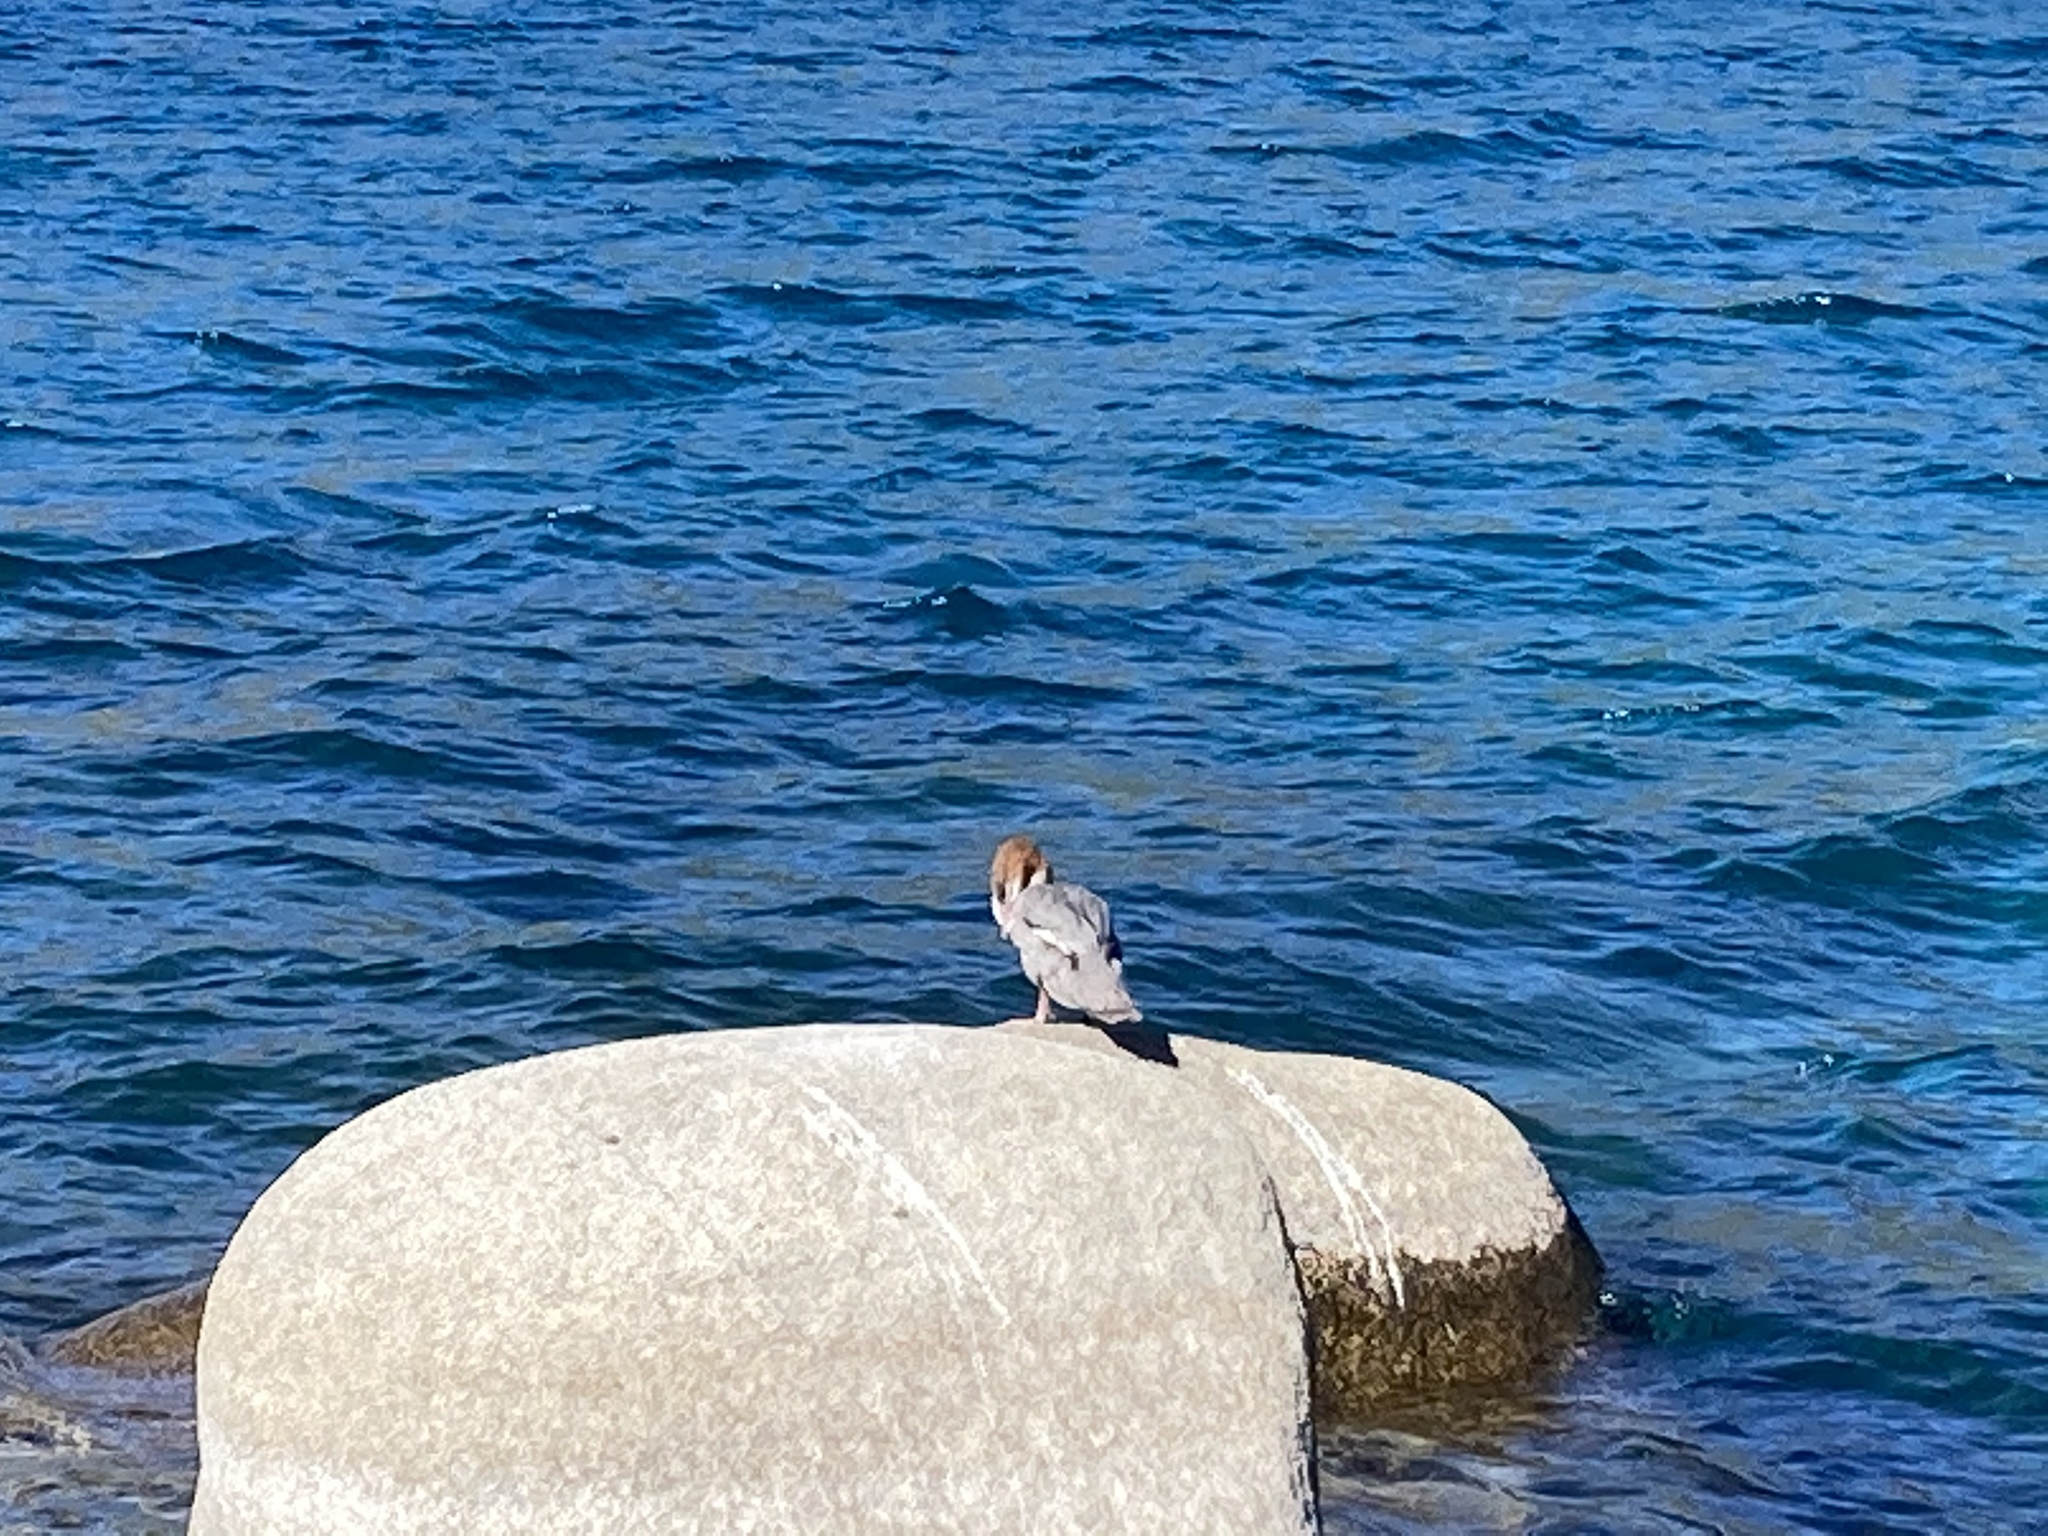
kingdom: Animalia
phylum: Chordata
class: Aves
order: Anseriformes
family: Anatidae
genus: Mergus
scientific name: Mergus merganser
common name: Common merganser
